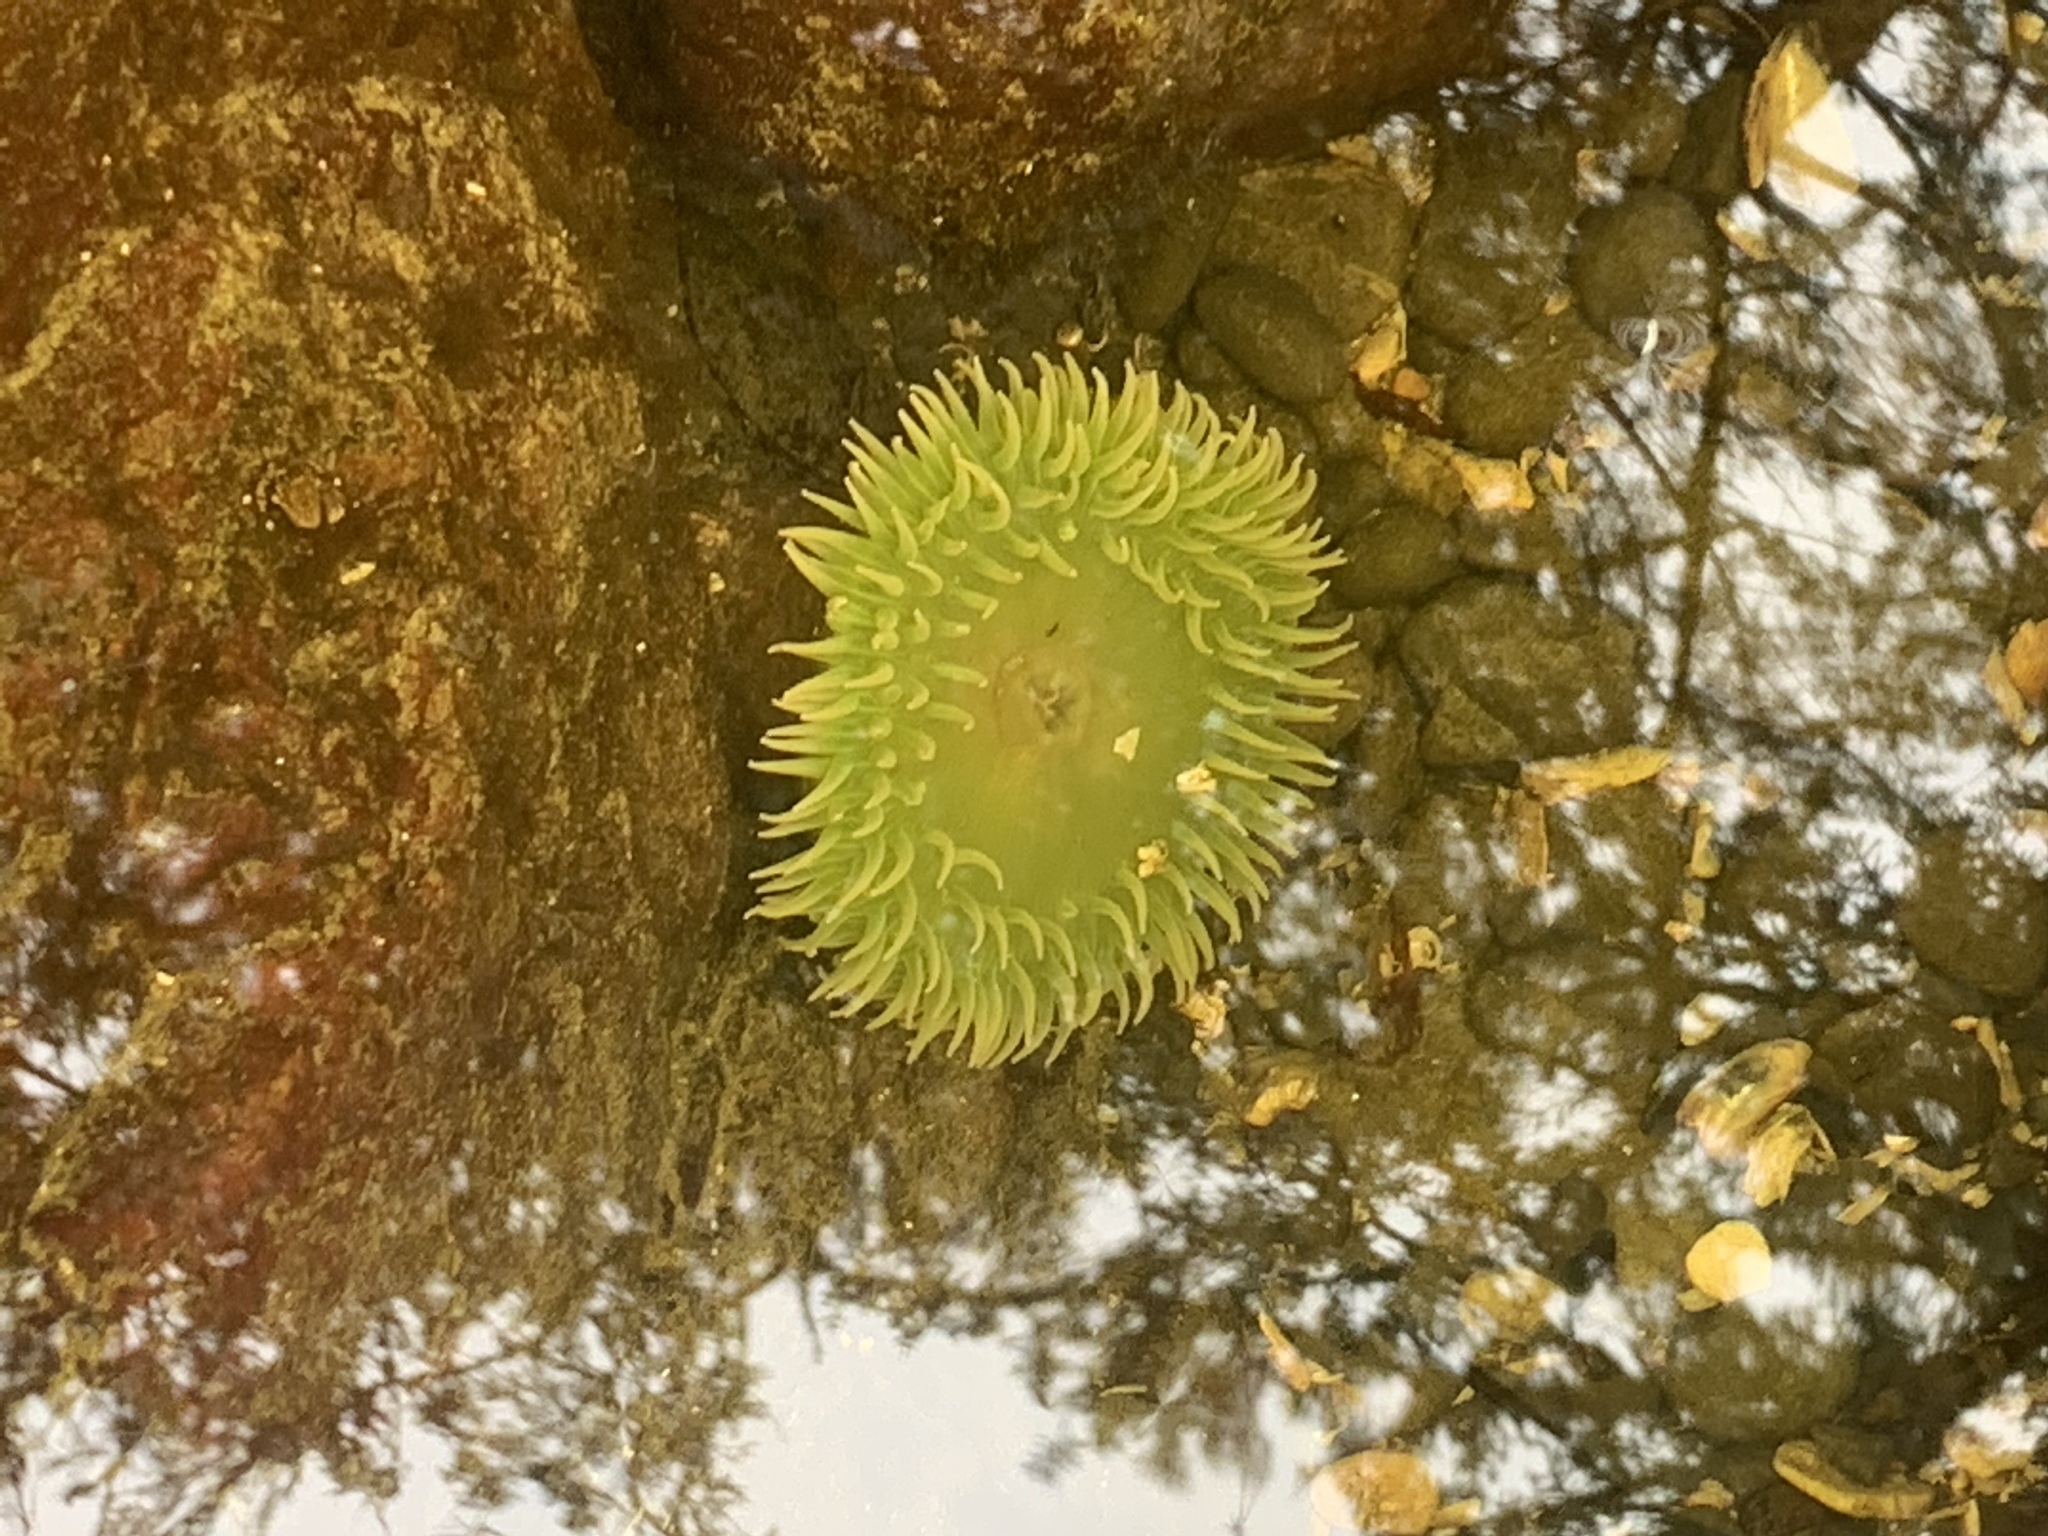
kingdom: Animalia
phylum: Cnidaria
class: Anthozoa
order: Actiniaria
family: Actiniidae
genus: Anthopleura
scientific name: Anthopleura xanthogrammica
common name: Giant green anemone
